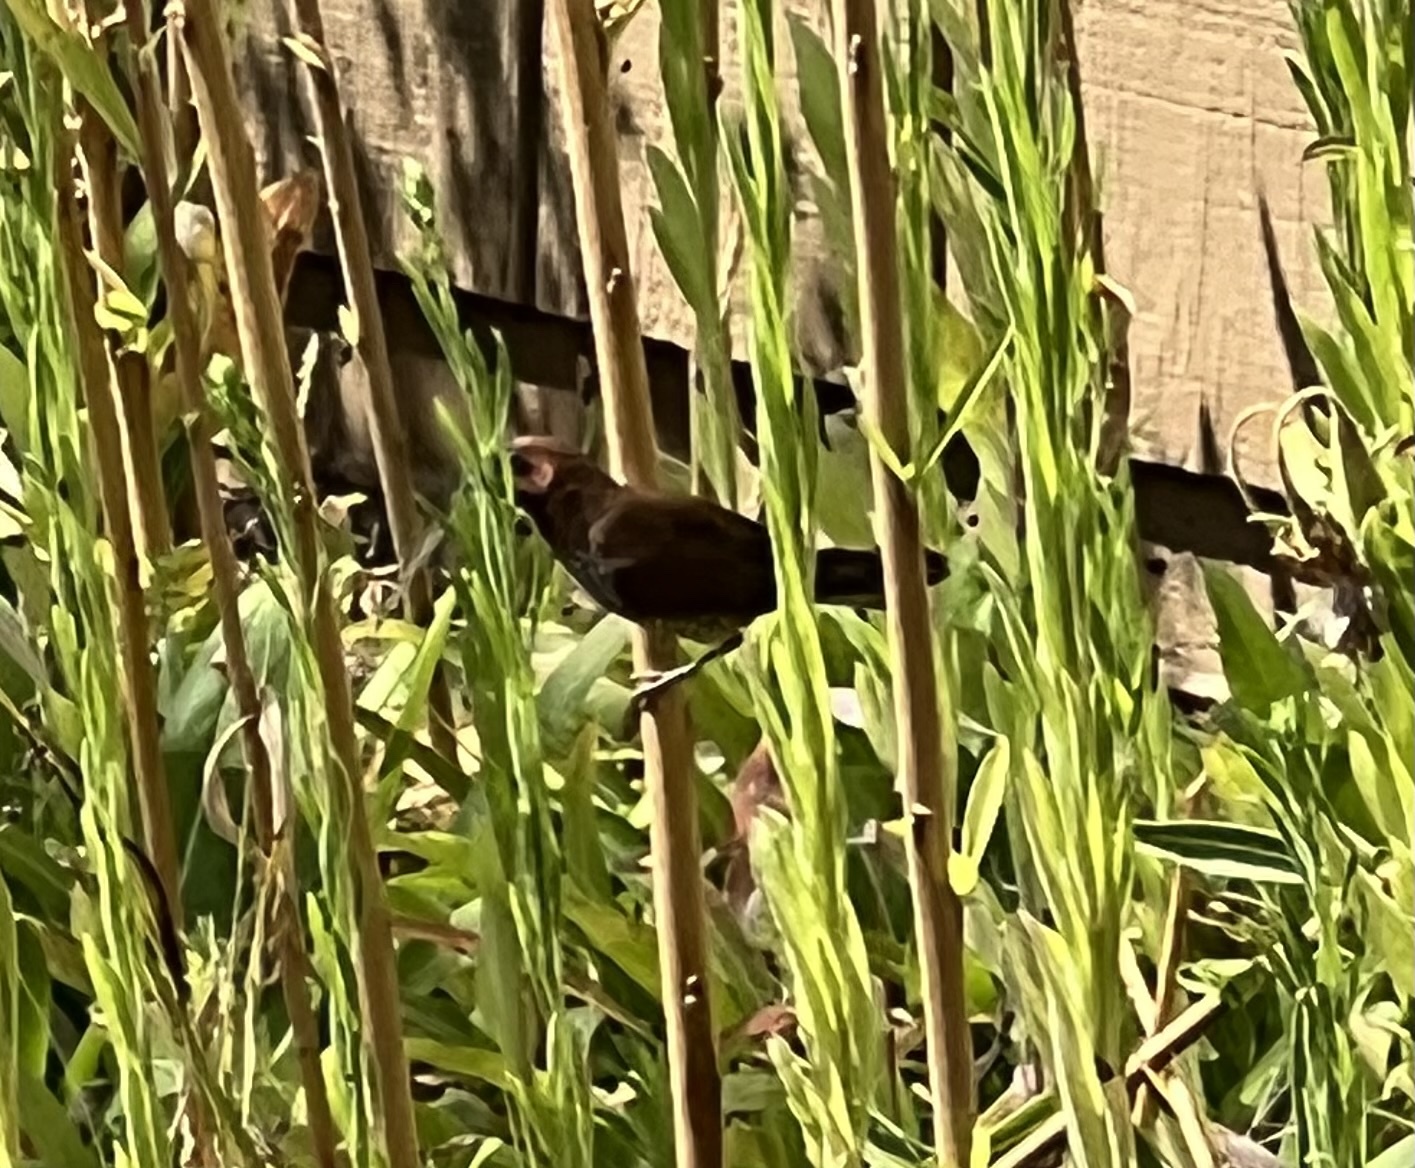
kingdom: Animalia
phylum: Chordata
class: Aves
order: Passeriformes
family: Estrildidae
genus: Lonchura
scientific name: Lonchura punctulata
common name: Scaly-breasted munia
